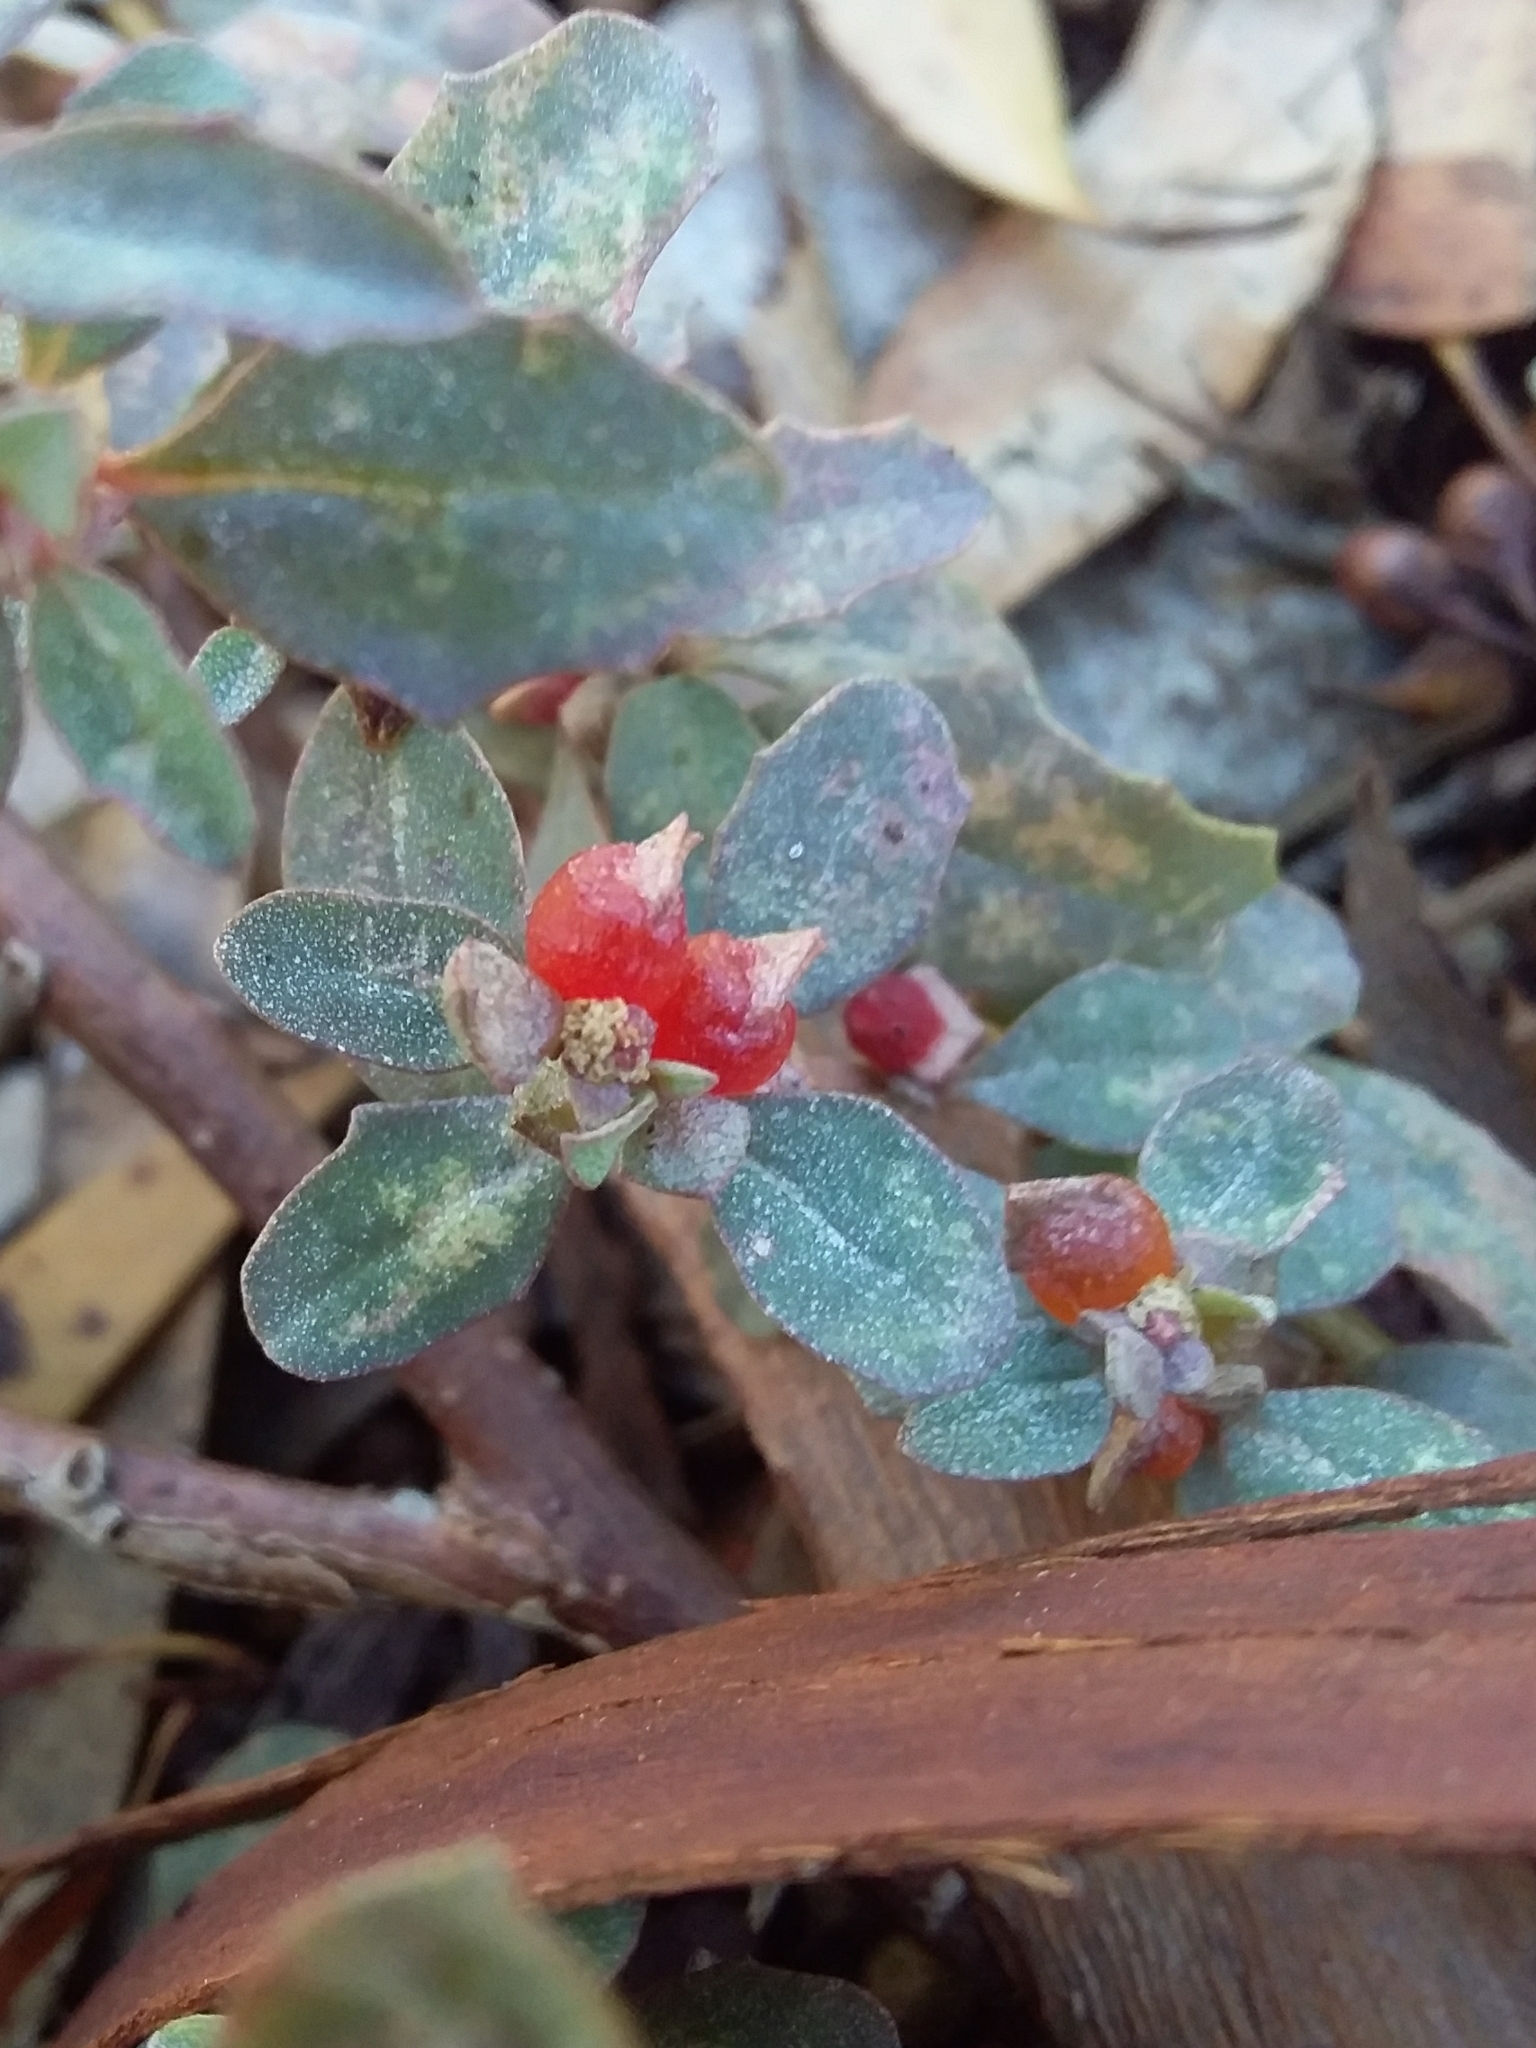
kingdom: Plantae
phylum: Tracheophyta
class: Magnoliopsida
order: Caryophyllales
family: Amaranthaceae
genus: Atriplex
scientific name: Atriplex semibaccata
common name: Australian saltbush
